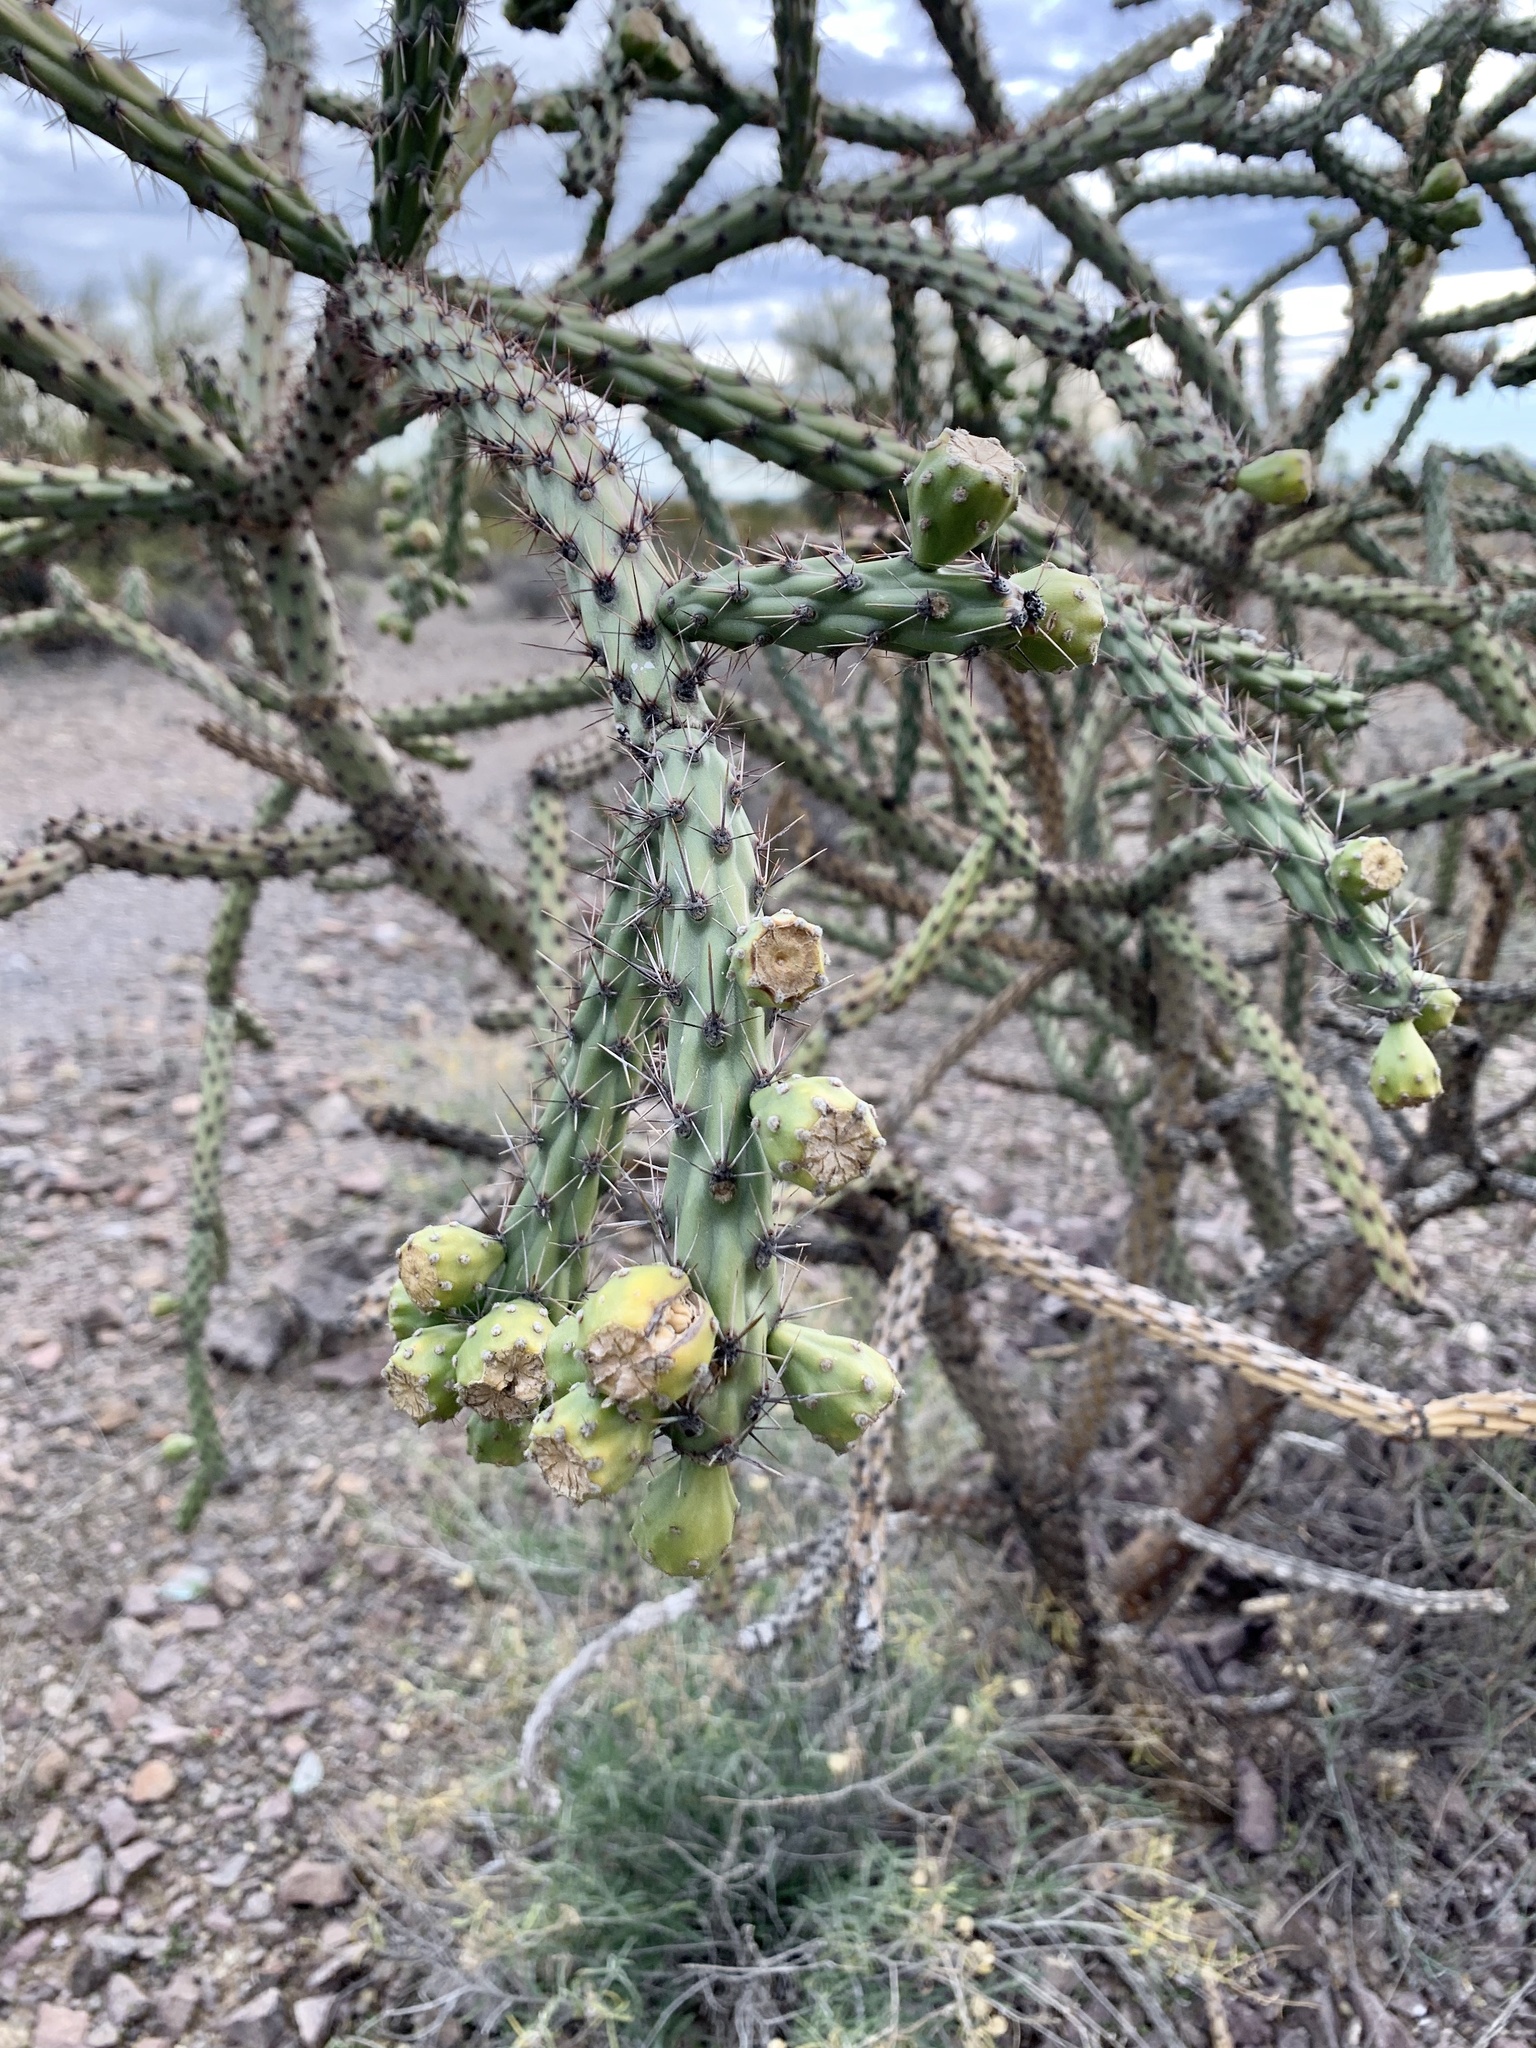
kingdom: Plantae
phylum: Tracheophyta
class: Magnoliopsida
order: Caryophyllales
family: Cactaceae
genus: Cylindropuntia
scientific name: Cylindropuntia thurberi
